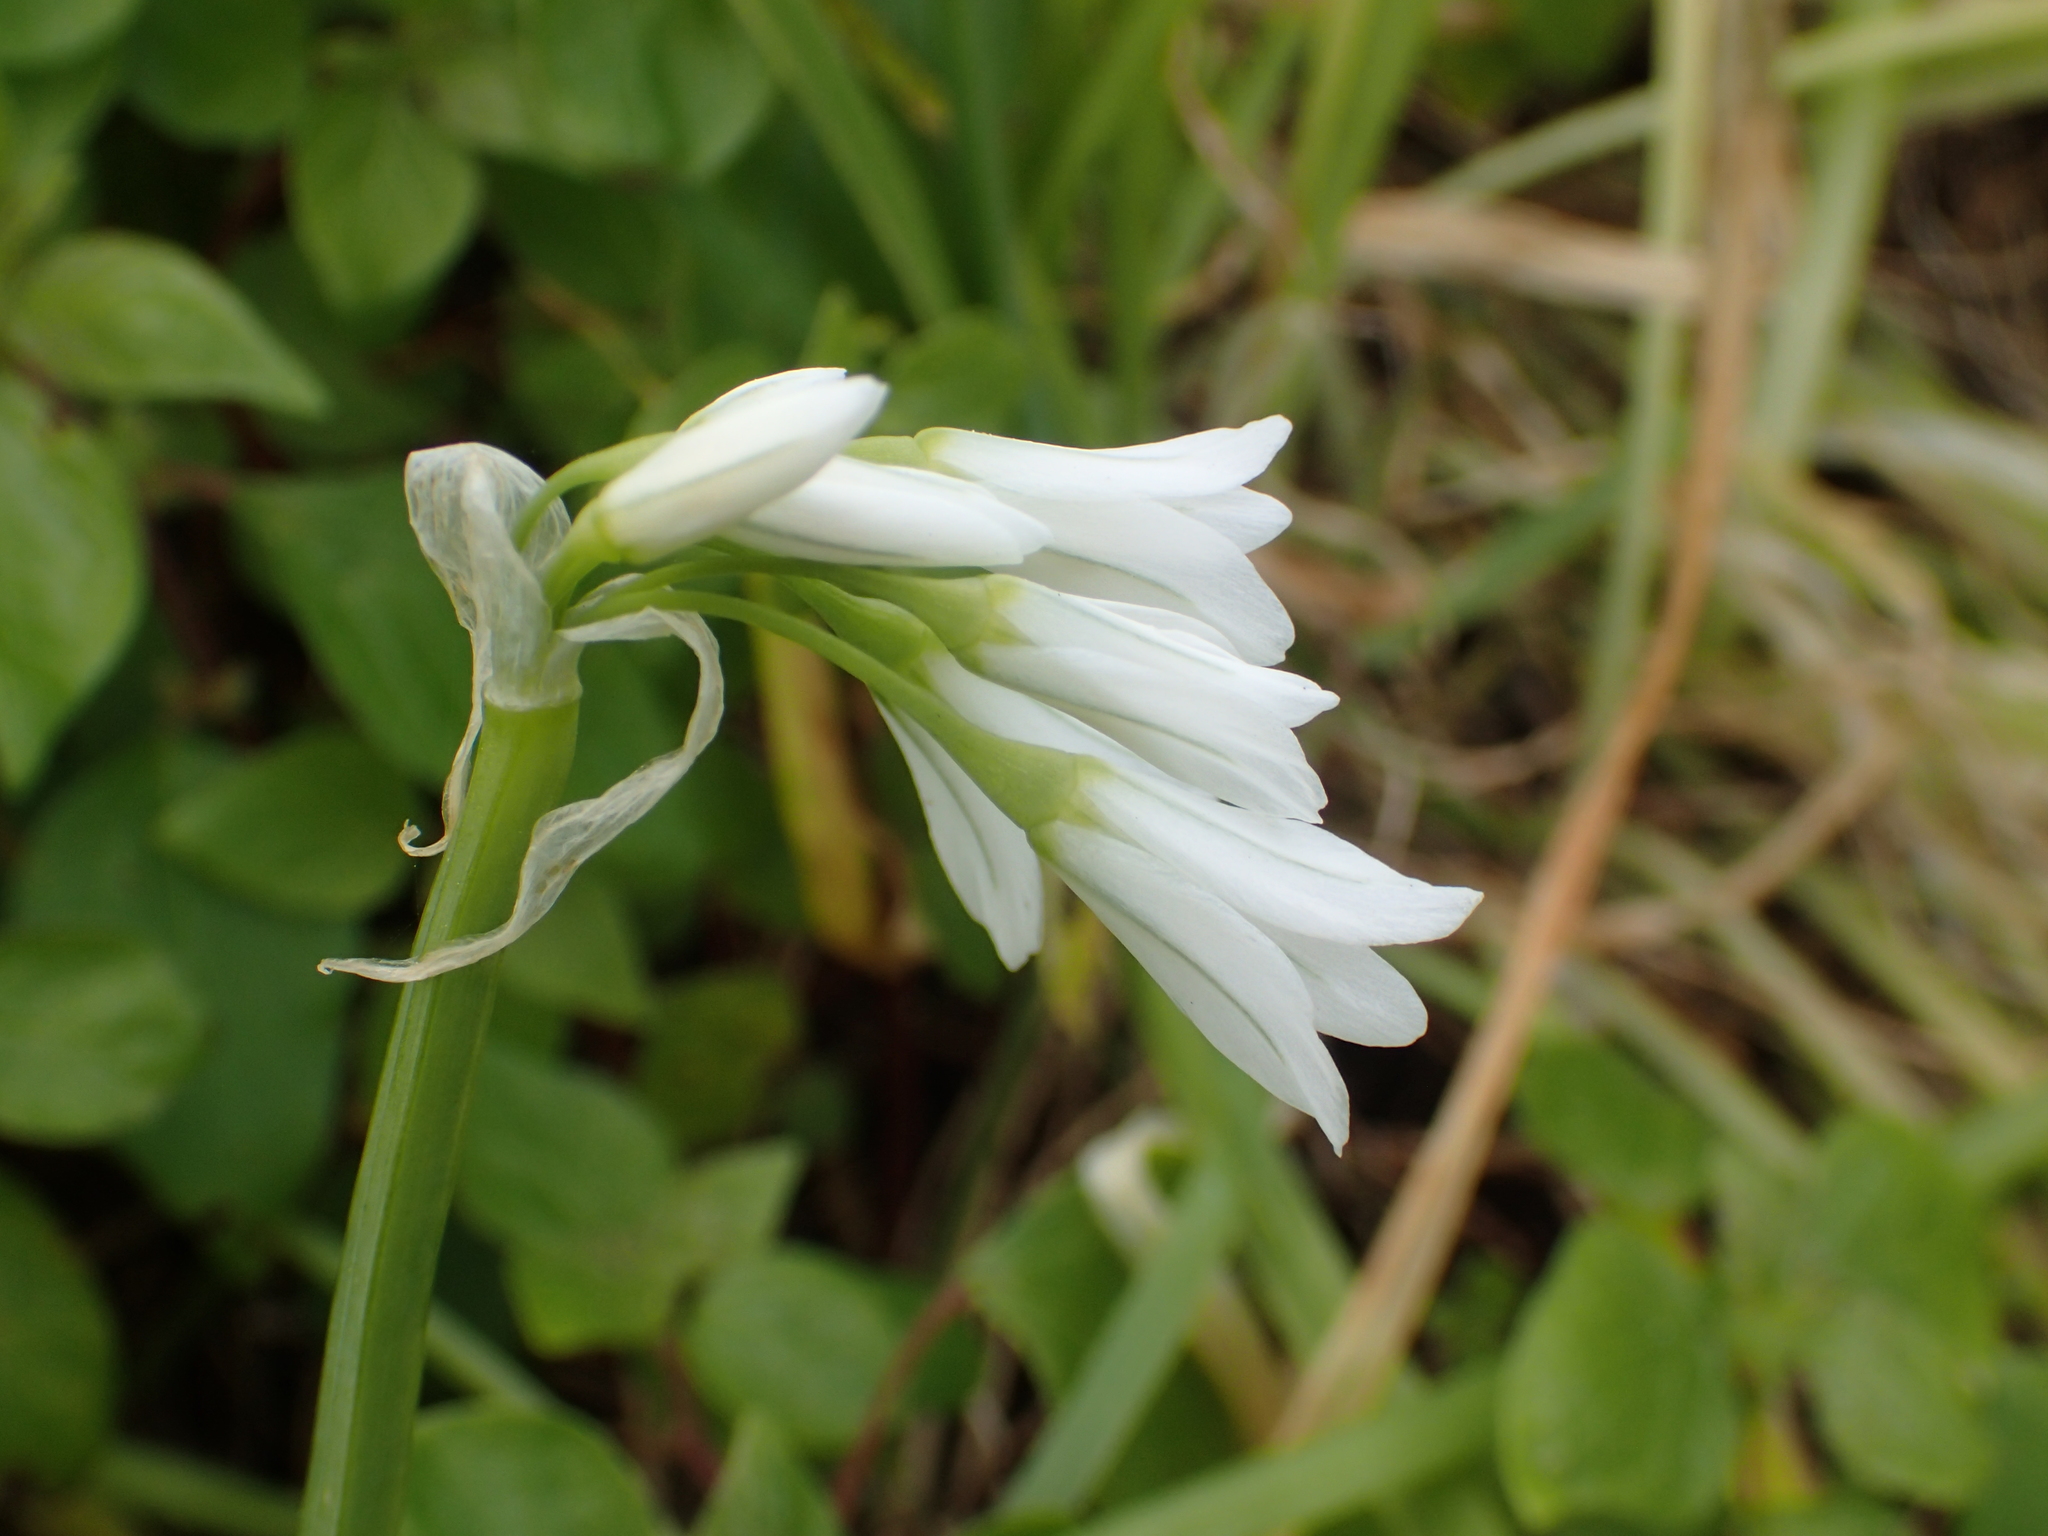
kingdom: Plantae
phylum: Tracheophyta
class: Liliopsida
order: Asparagales
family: Amaryllidaceae
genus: Allium
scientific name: Allium triquetrum
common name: Three-cornered garlic
